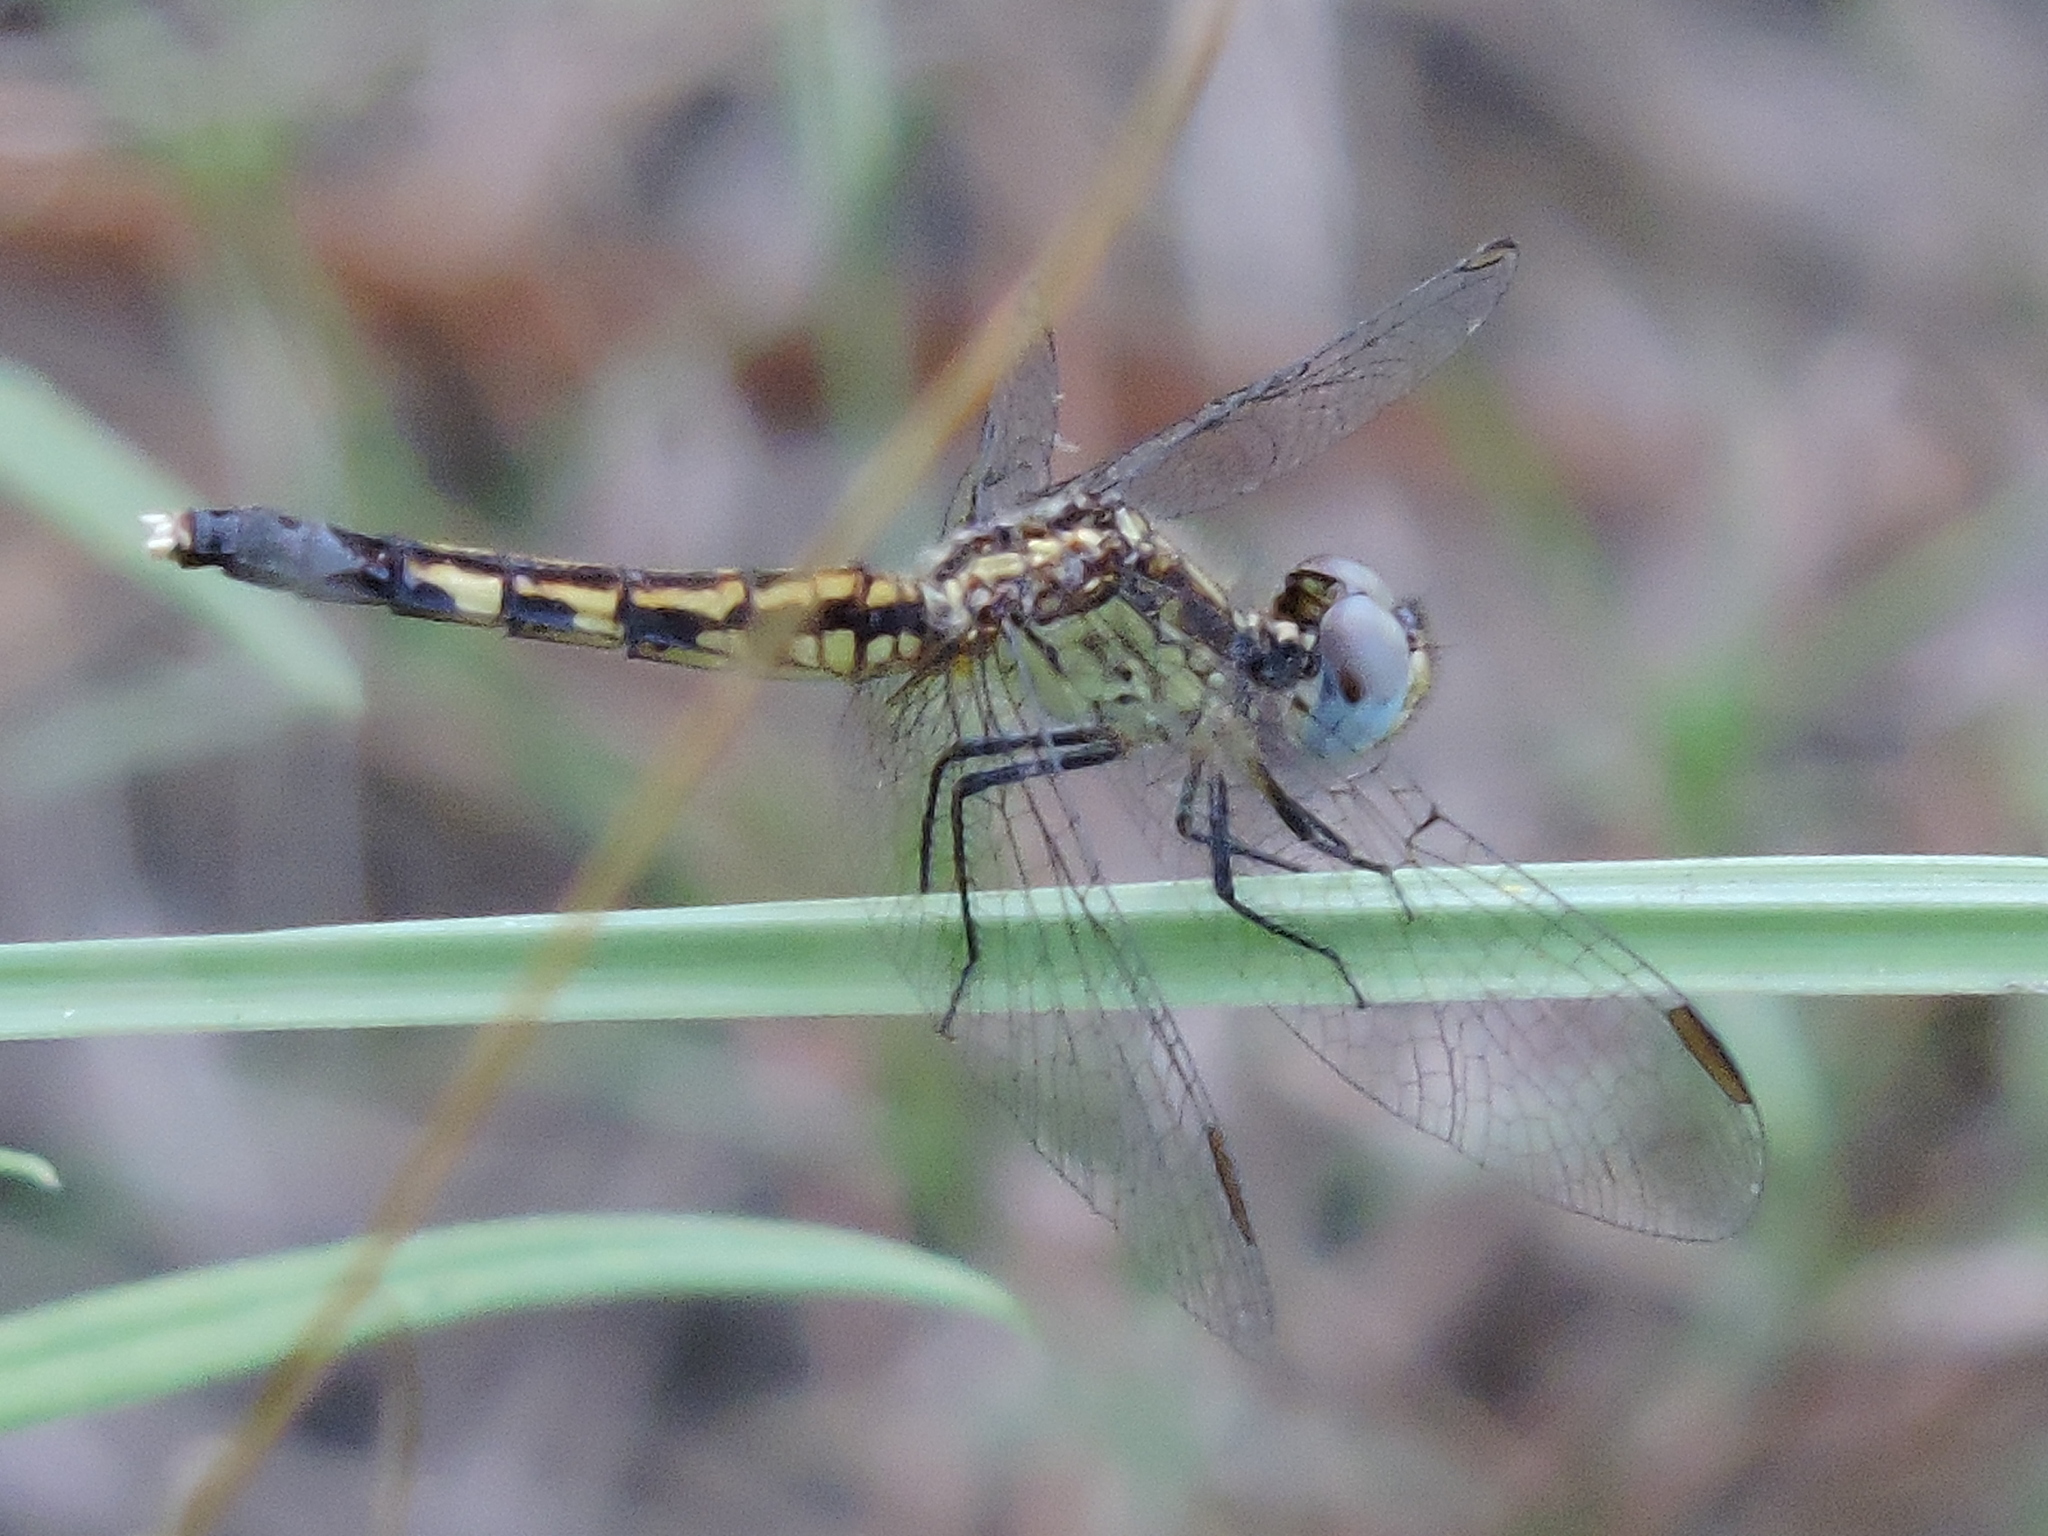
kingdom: Animalia
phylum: Arthropoda
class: Insecta
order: Odonata
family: Libellulidae
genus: Erythrodiplax
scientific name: Erythrodiplax minuscula
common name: Little blue dragonlet
